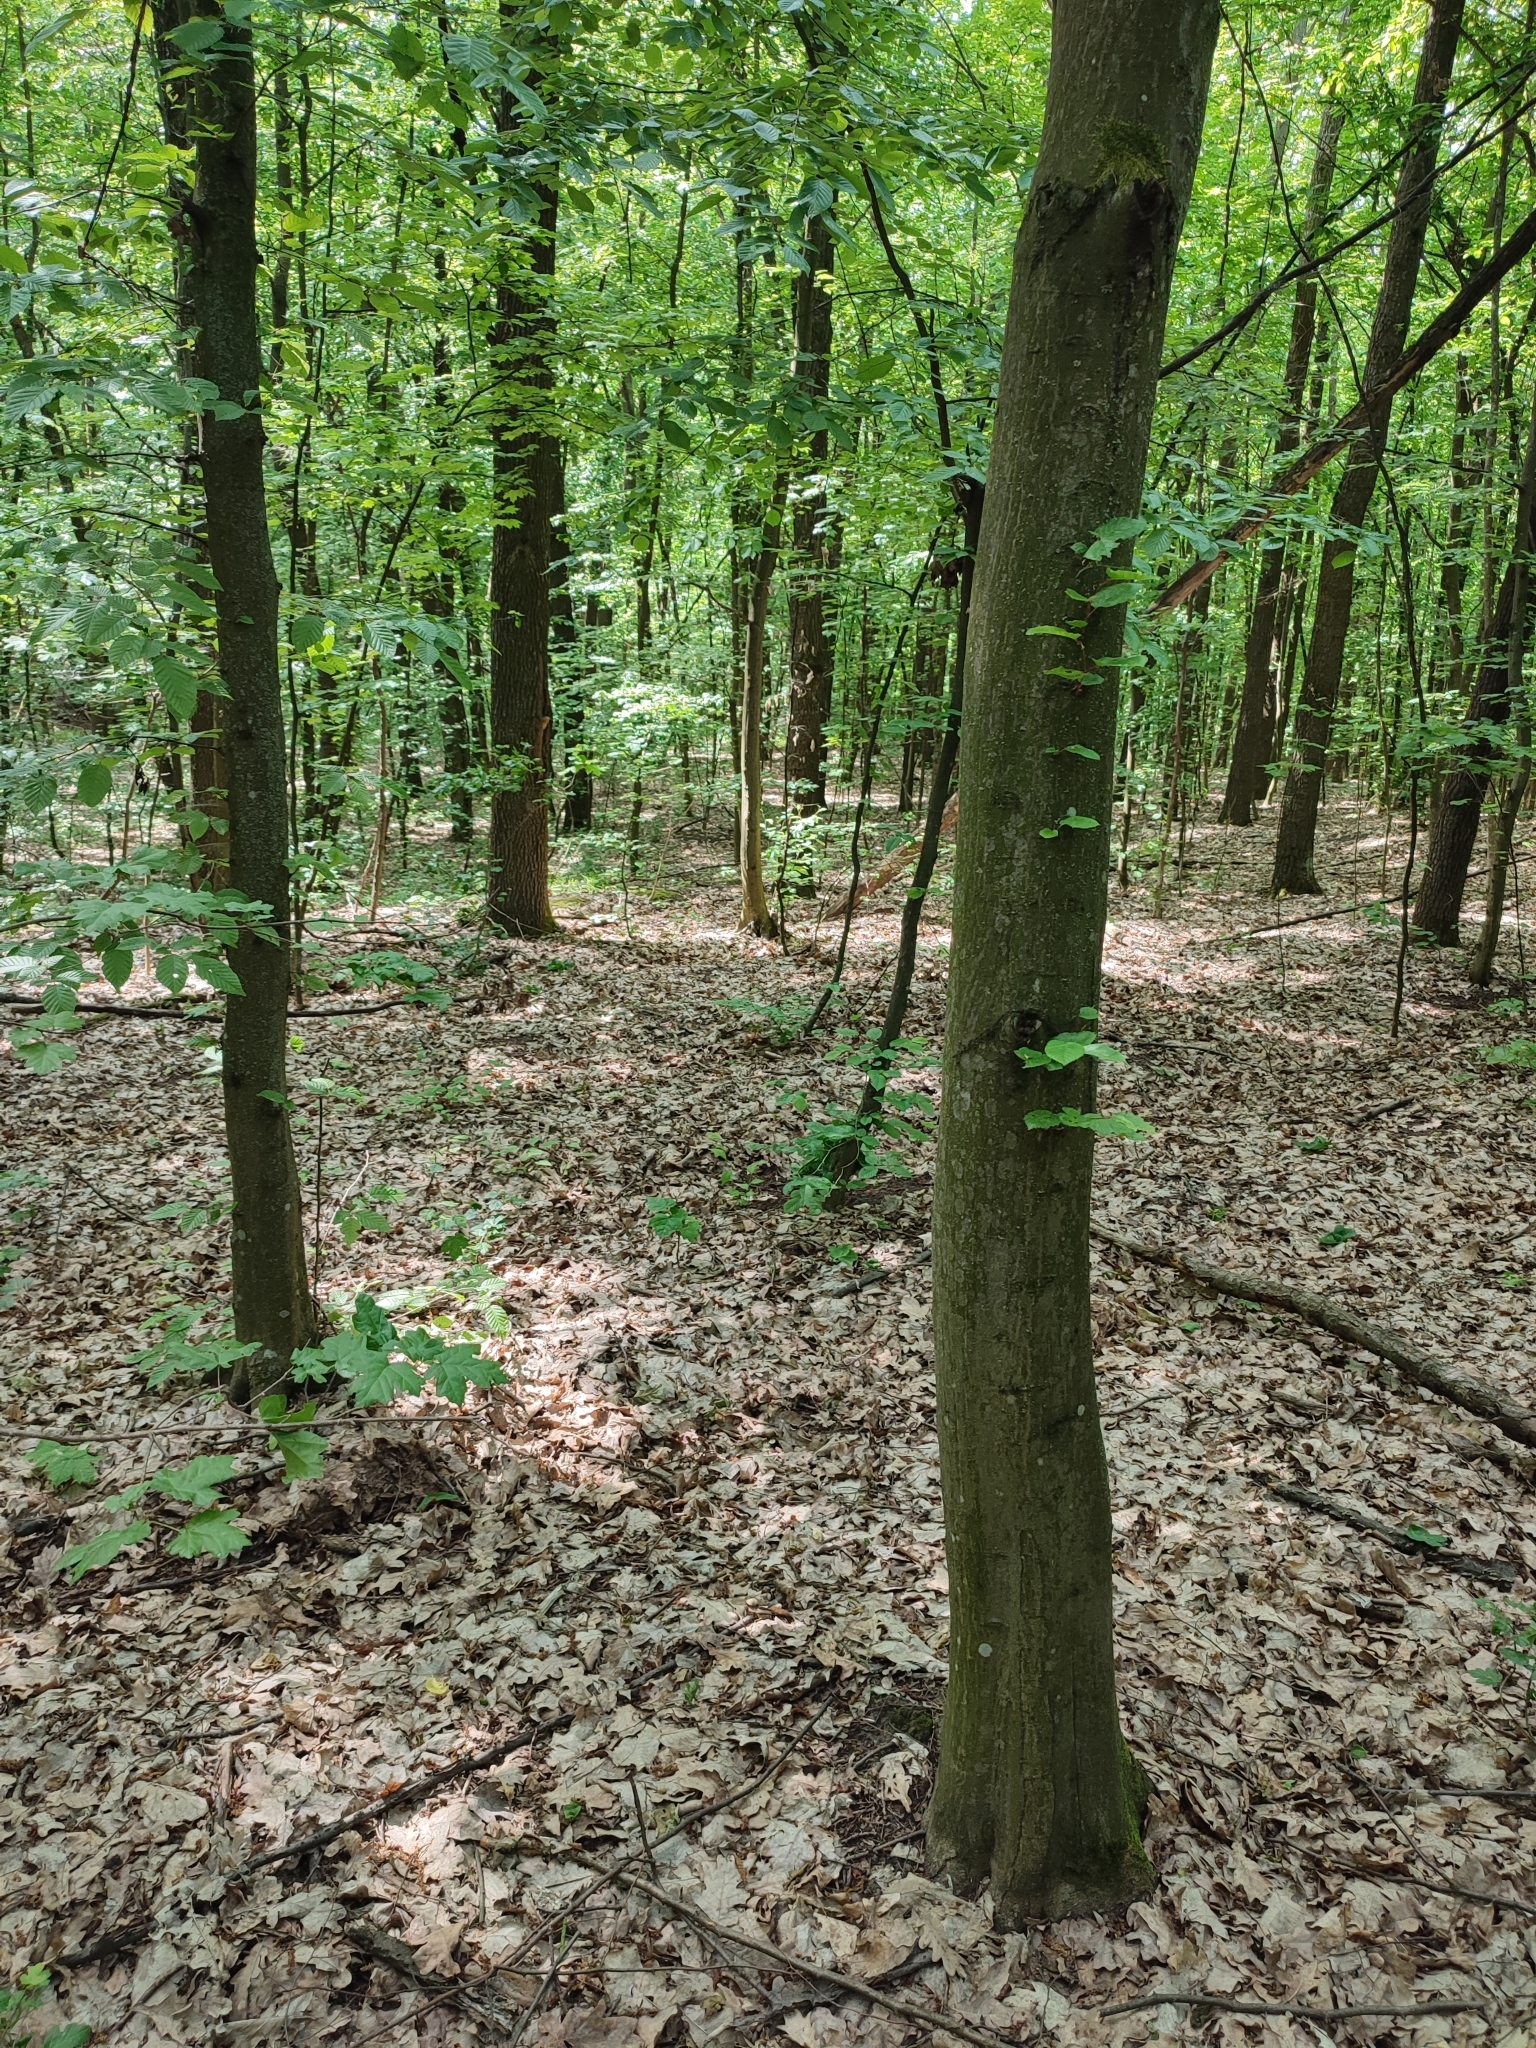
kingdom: Plantae
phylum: Tracheophyta
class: Magnoliopsida
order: Fagales
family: Betulaceae
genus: Carpinus
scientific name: Carpinus betulus
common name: Hornbeam
